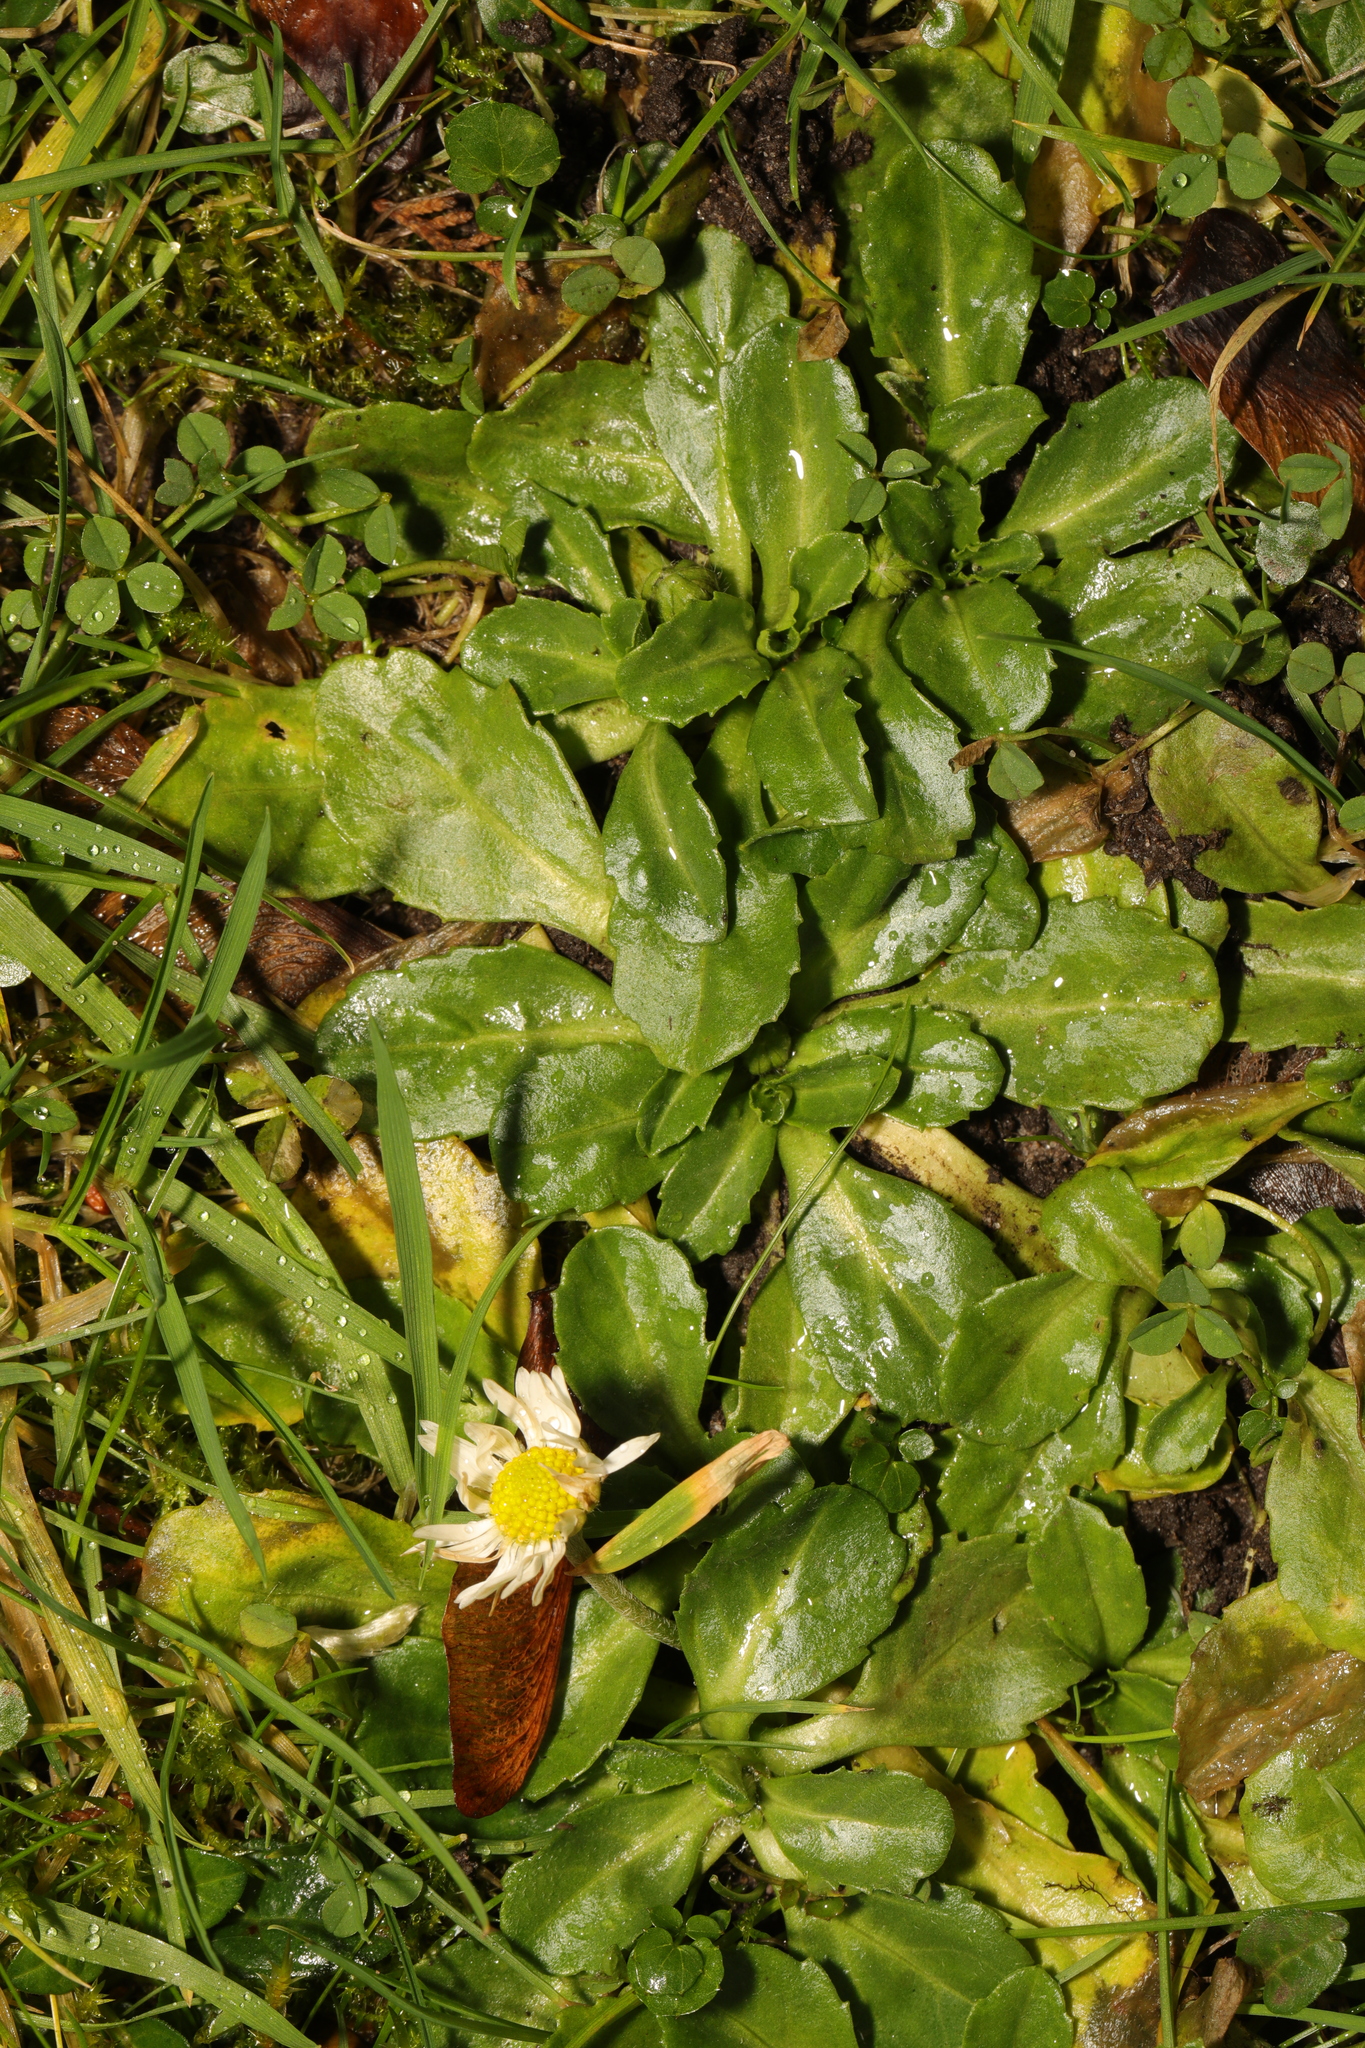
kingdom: Plantae
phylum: Tracheophyta
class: Magnoliopsida
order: Asterales
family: Asteraceae
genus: Bellis
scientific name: Bellis perennis
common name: Lawndaisy
